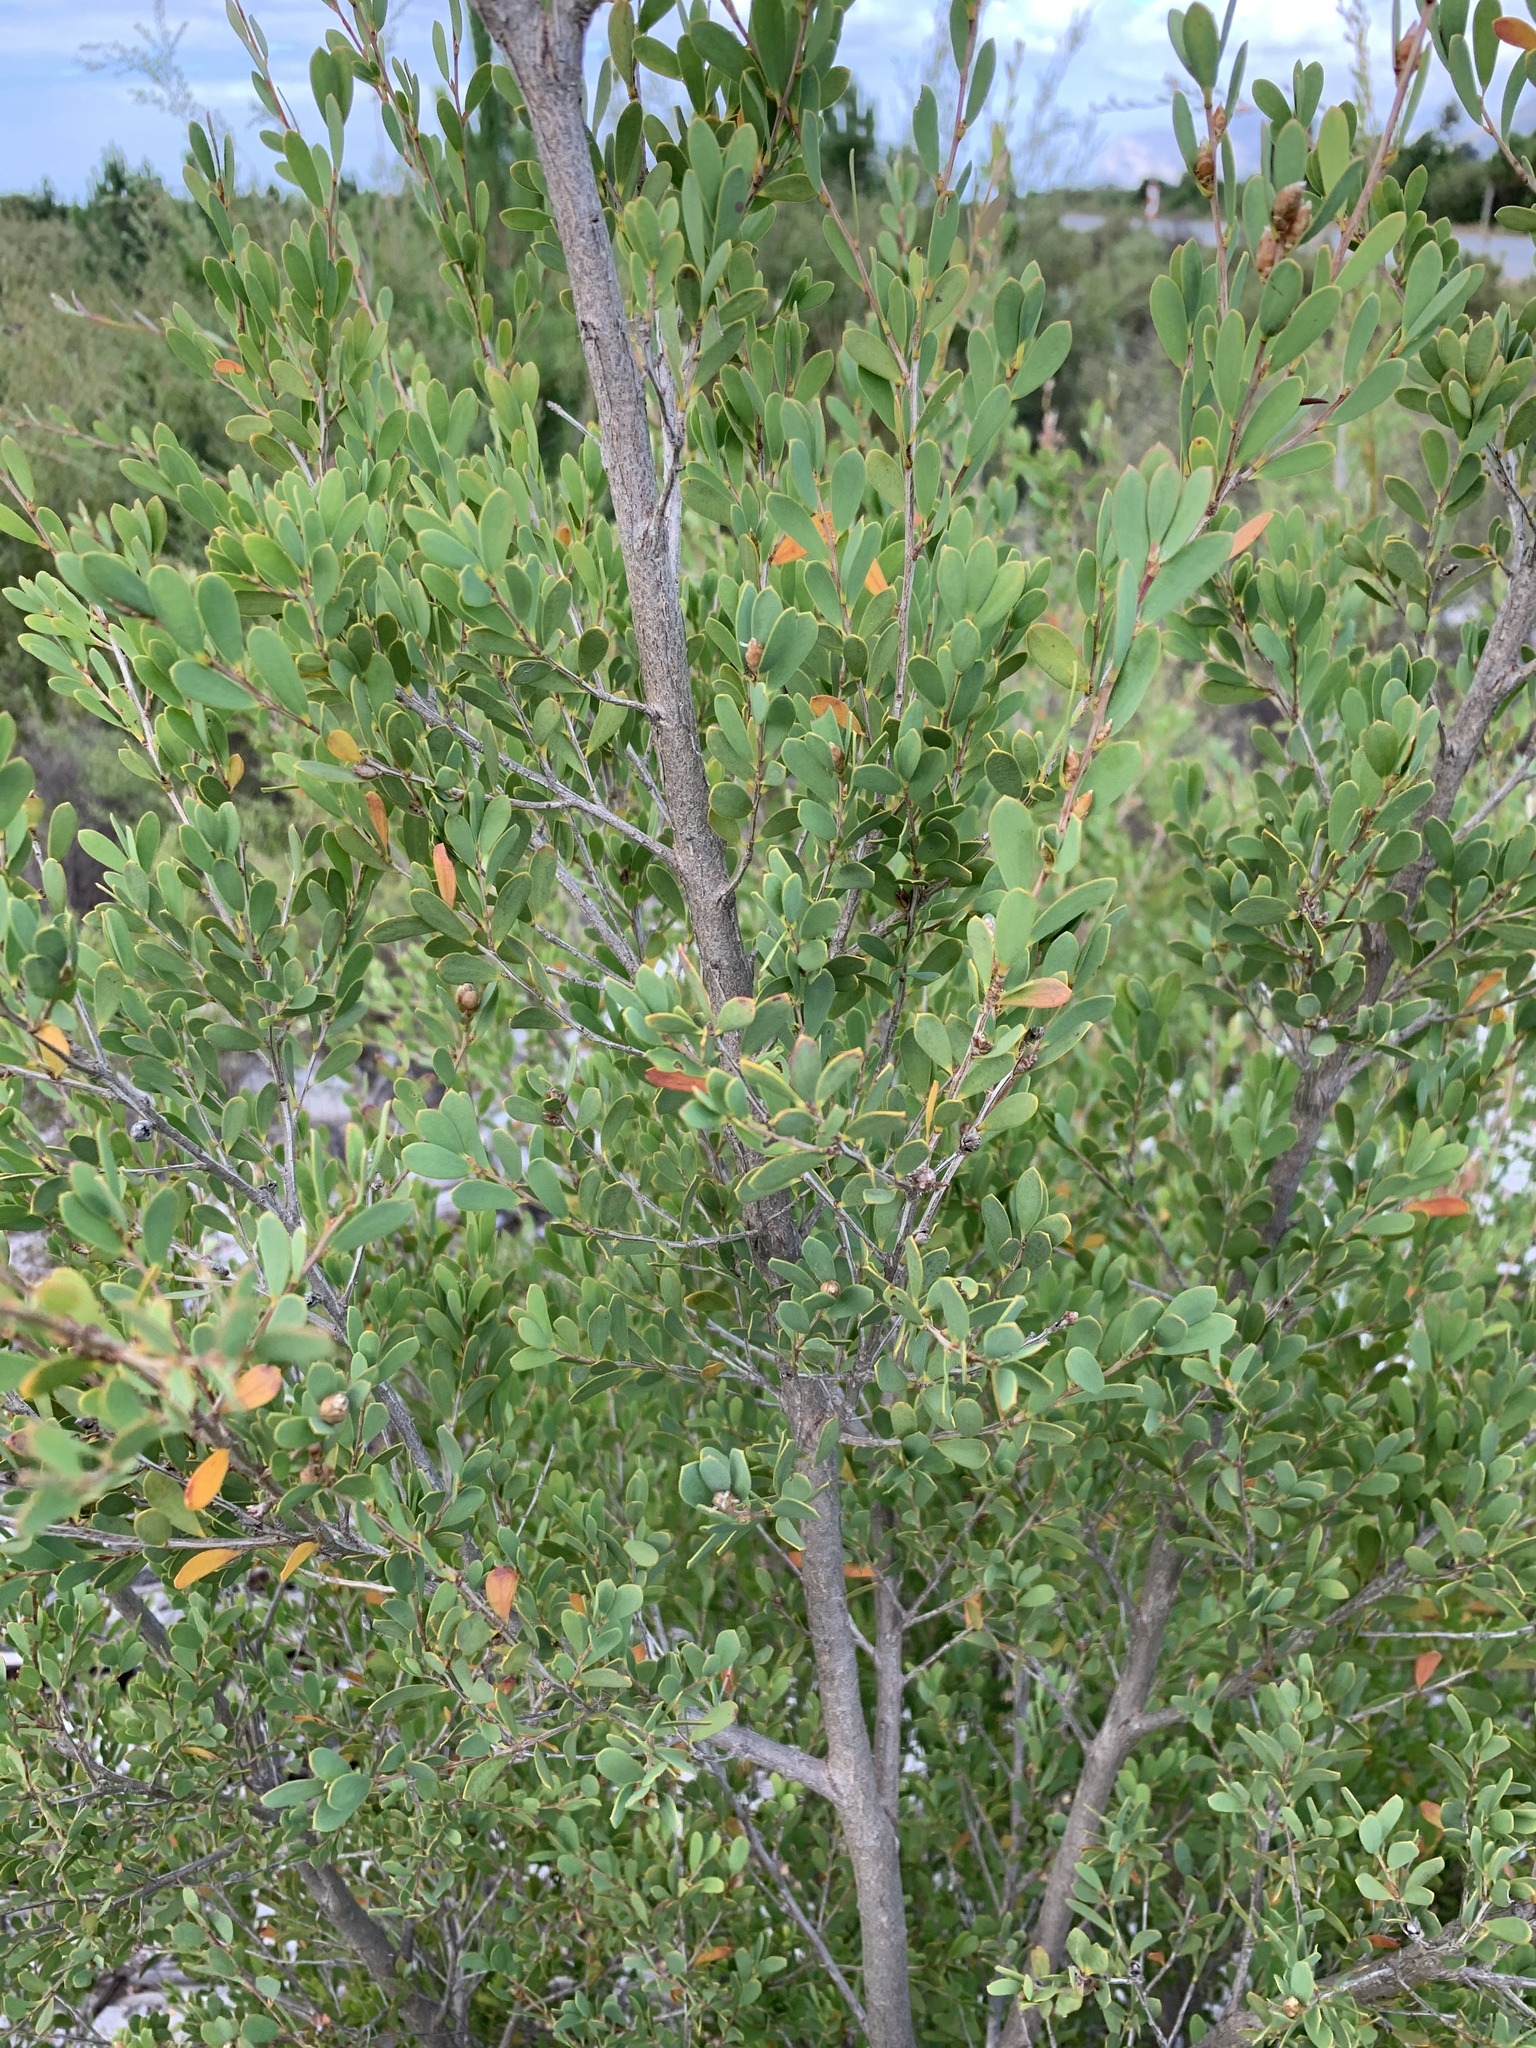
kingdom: Plantae
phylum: Tracheophyta
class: Magnoliopsida
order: Myrtales
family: Myrtaceae
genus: Leptospermum
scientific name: Leptospermum laevigatum
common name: Australian teatree
